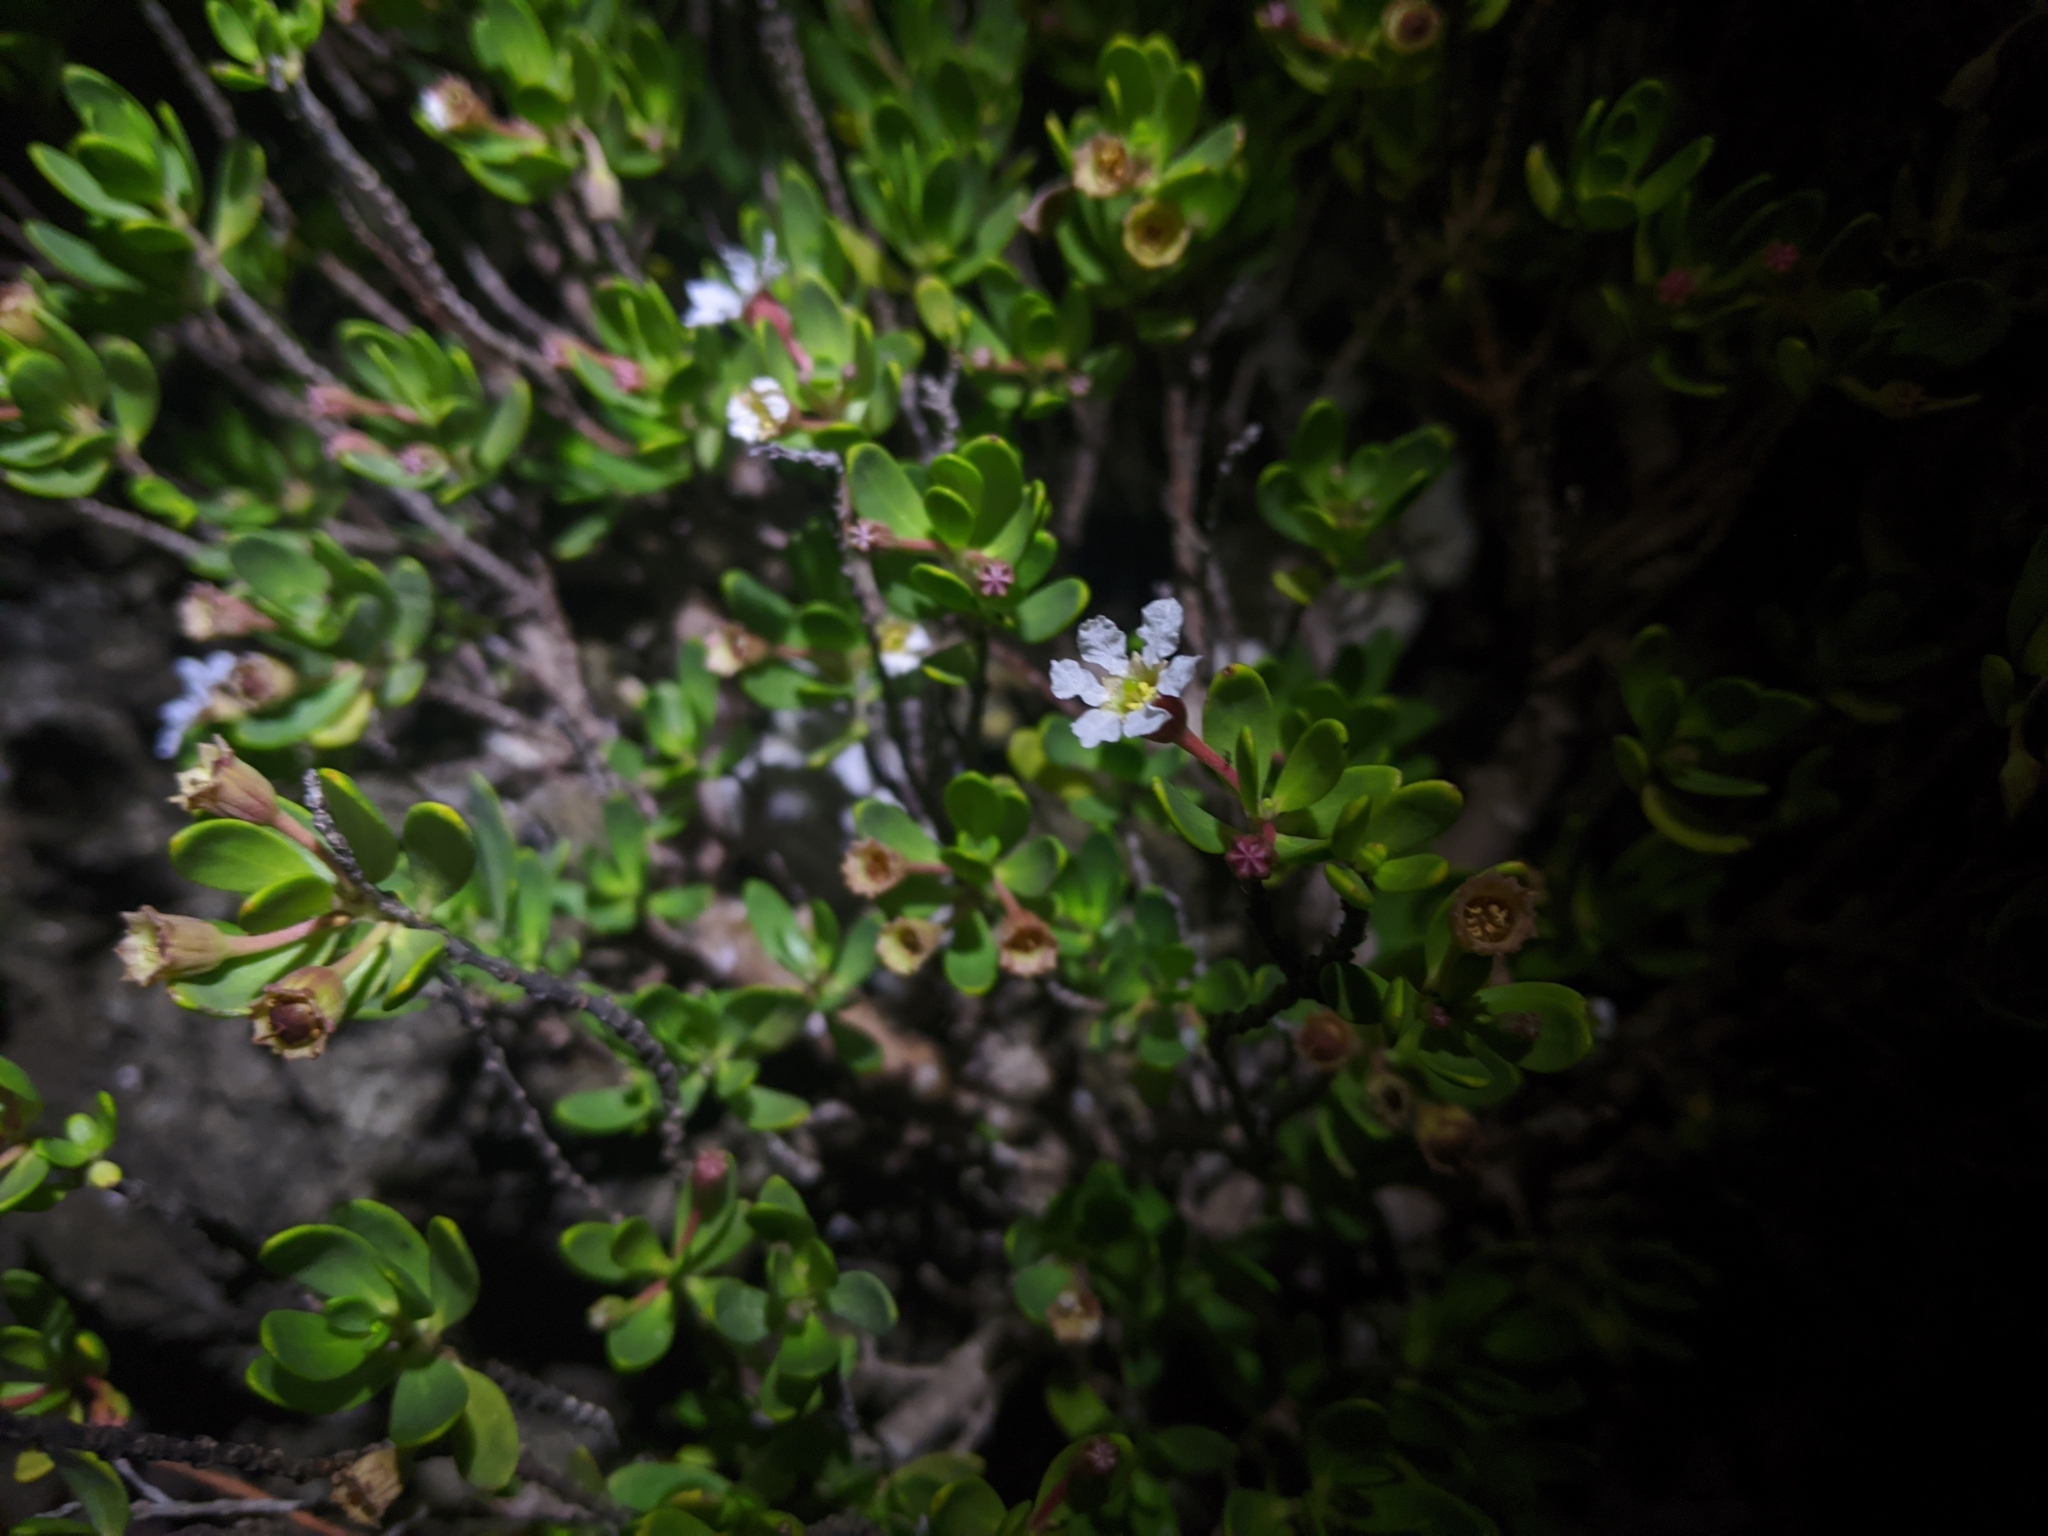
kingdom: Plantae
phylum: Tracheophyta
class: Magnoliopsida
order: Myrtales
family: Lythraceae
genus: Pemphis
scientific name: Pemphis acidula
